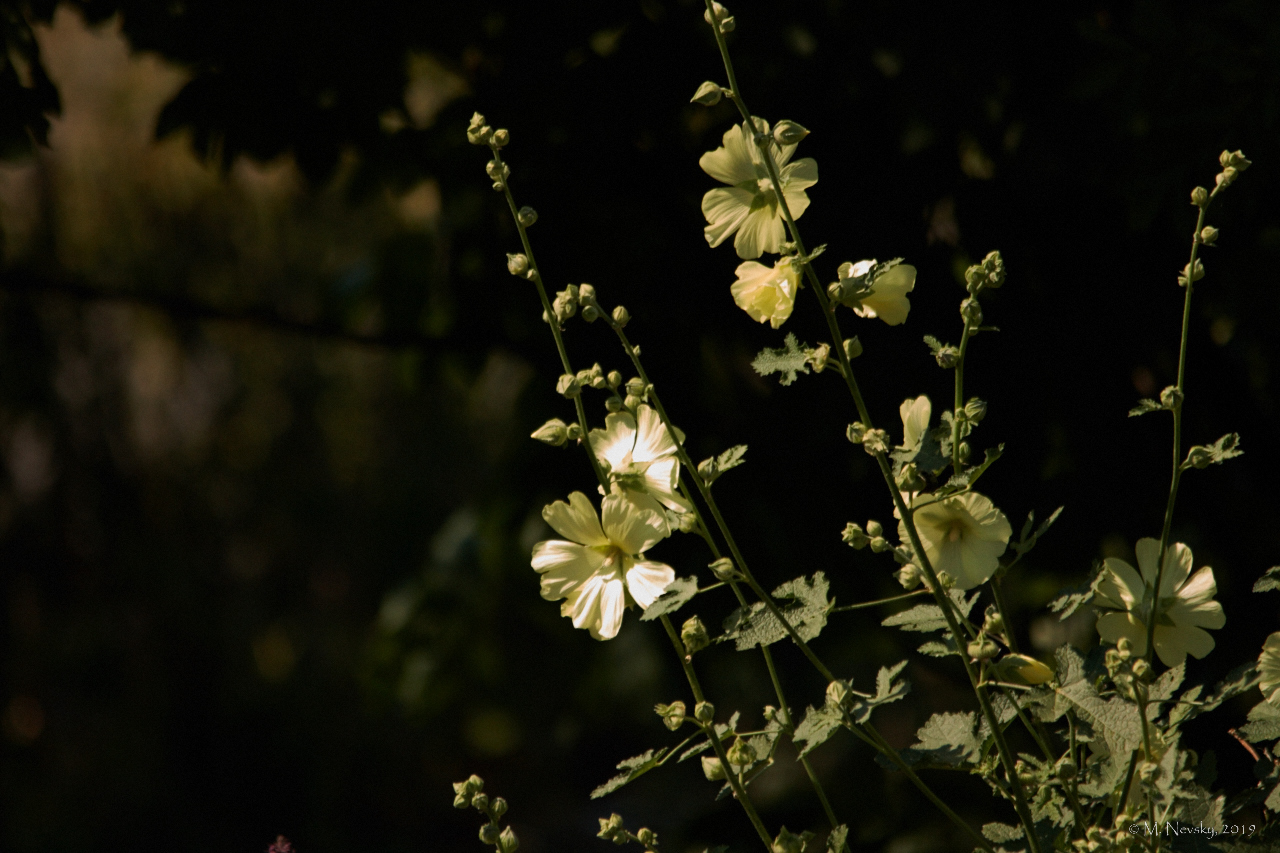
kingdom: Plantae
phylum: Tracheophyta
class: Magnoliopsida
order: Malvales
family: Malvaceae
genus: Alcea
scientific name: Alcea rugosa
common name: Russian hollyhock
